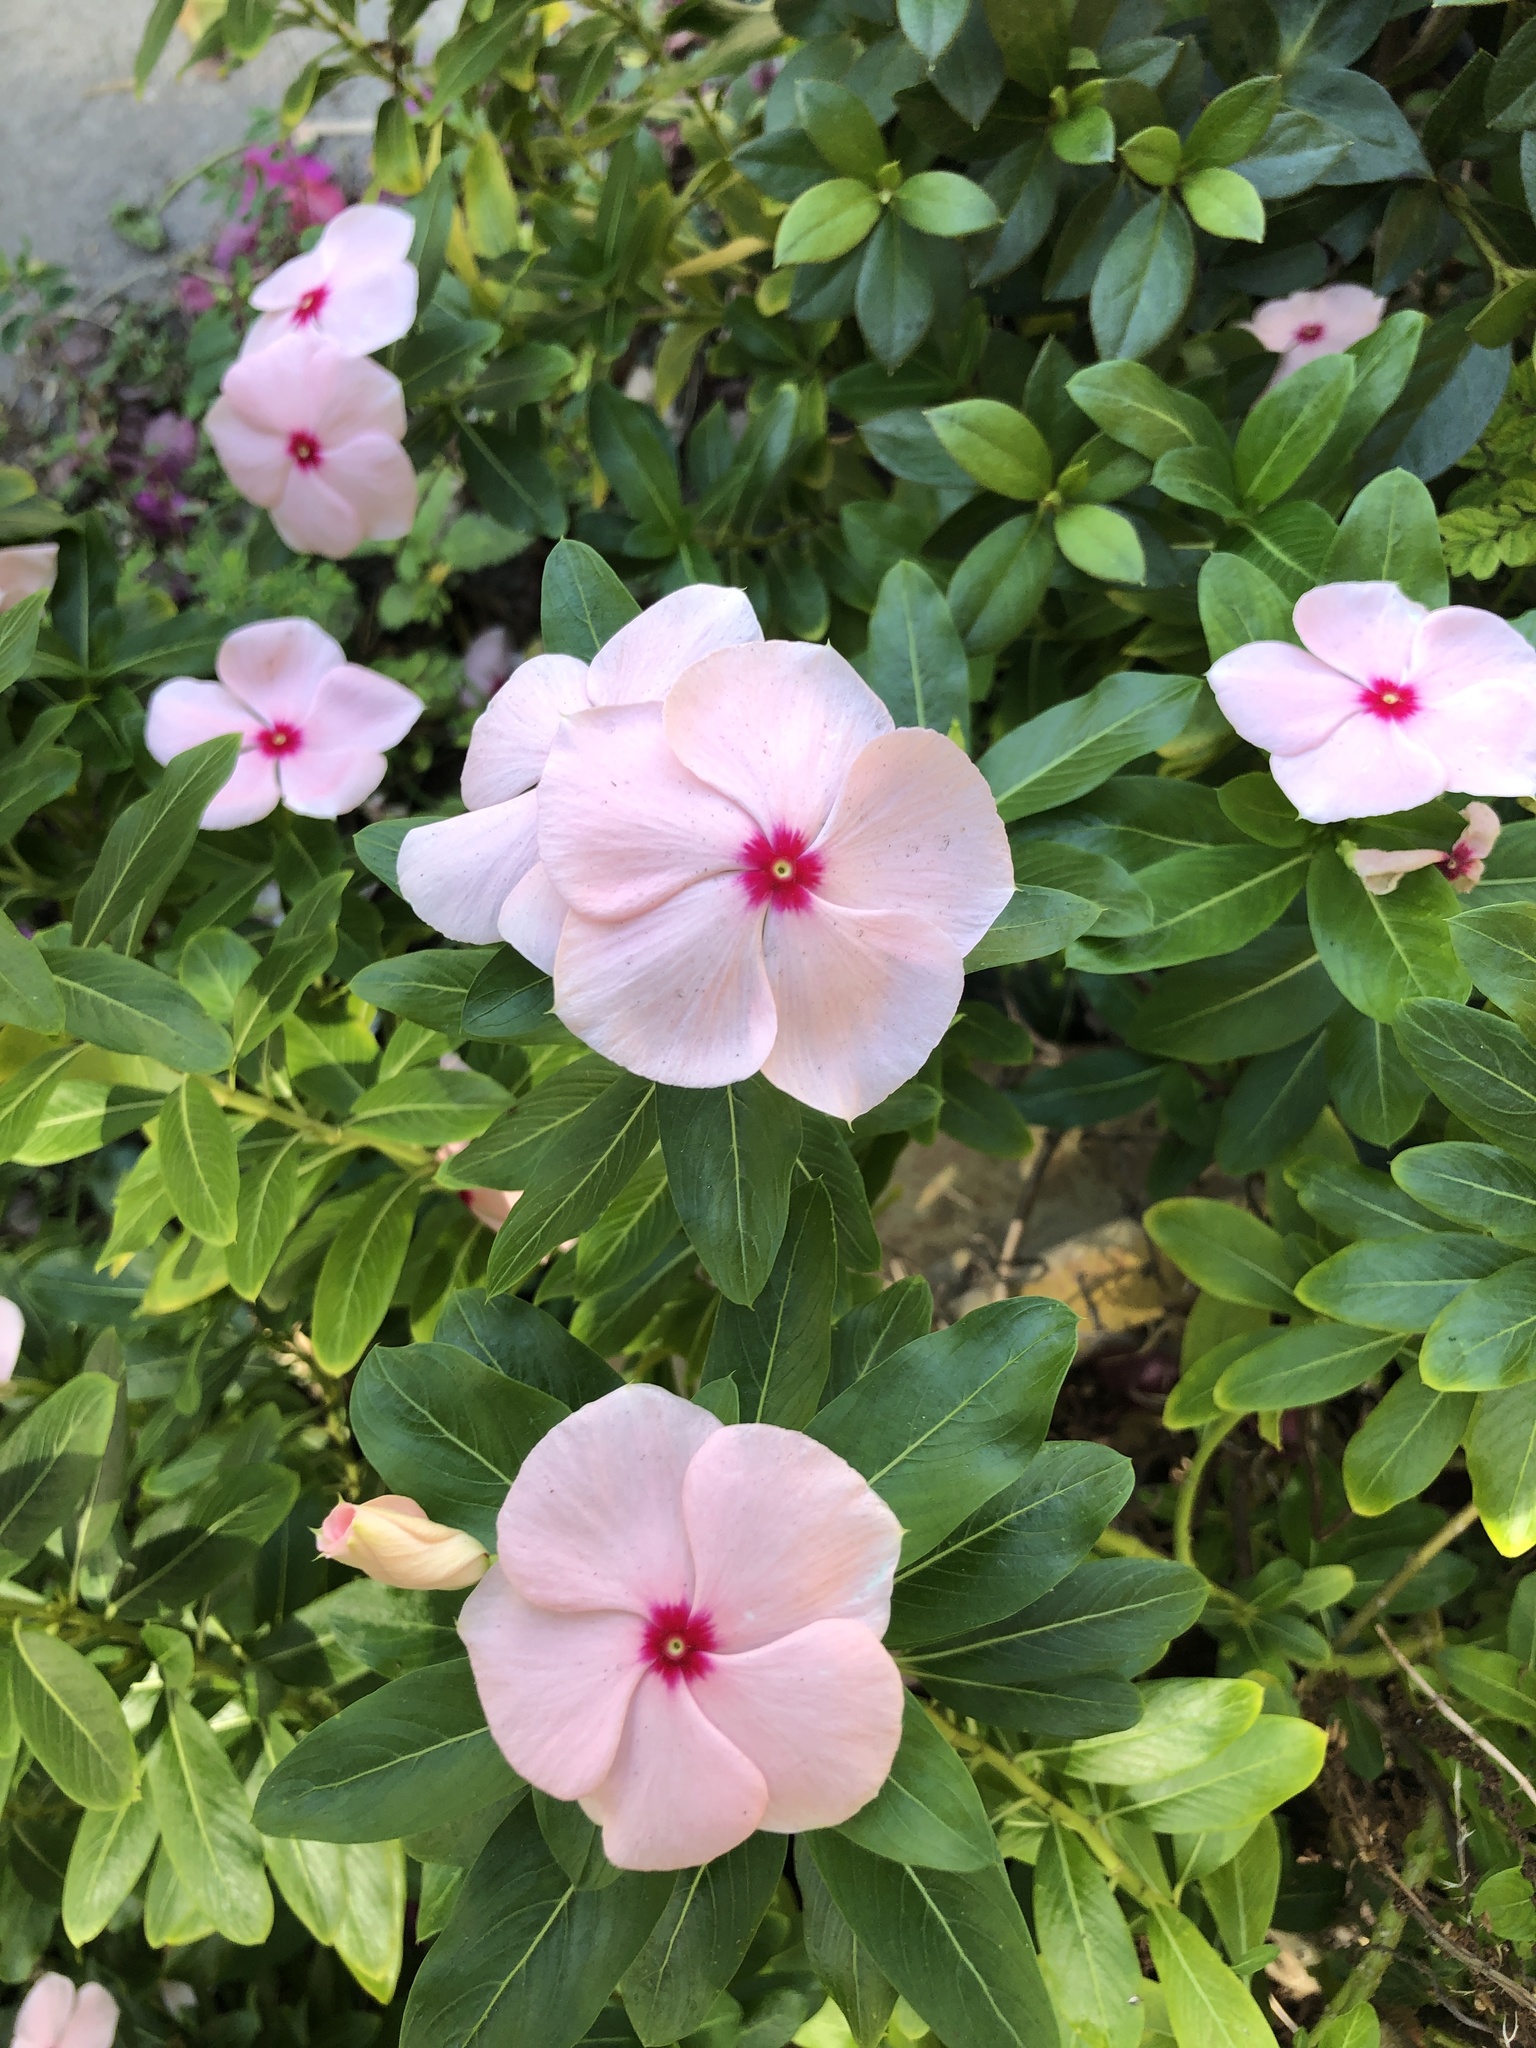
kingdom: Plantae
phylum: Tracheophyta
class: Magnoliopsida
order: Gentianales
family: Apocynaceae
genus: Catharanthus
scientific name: Catharanthus roseus
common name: Madagascar periwinkle
